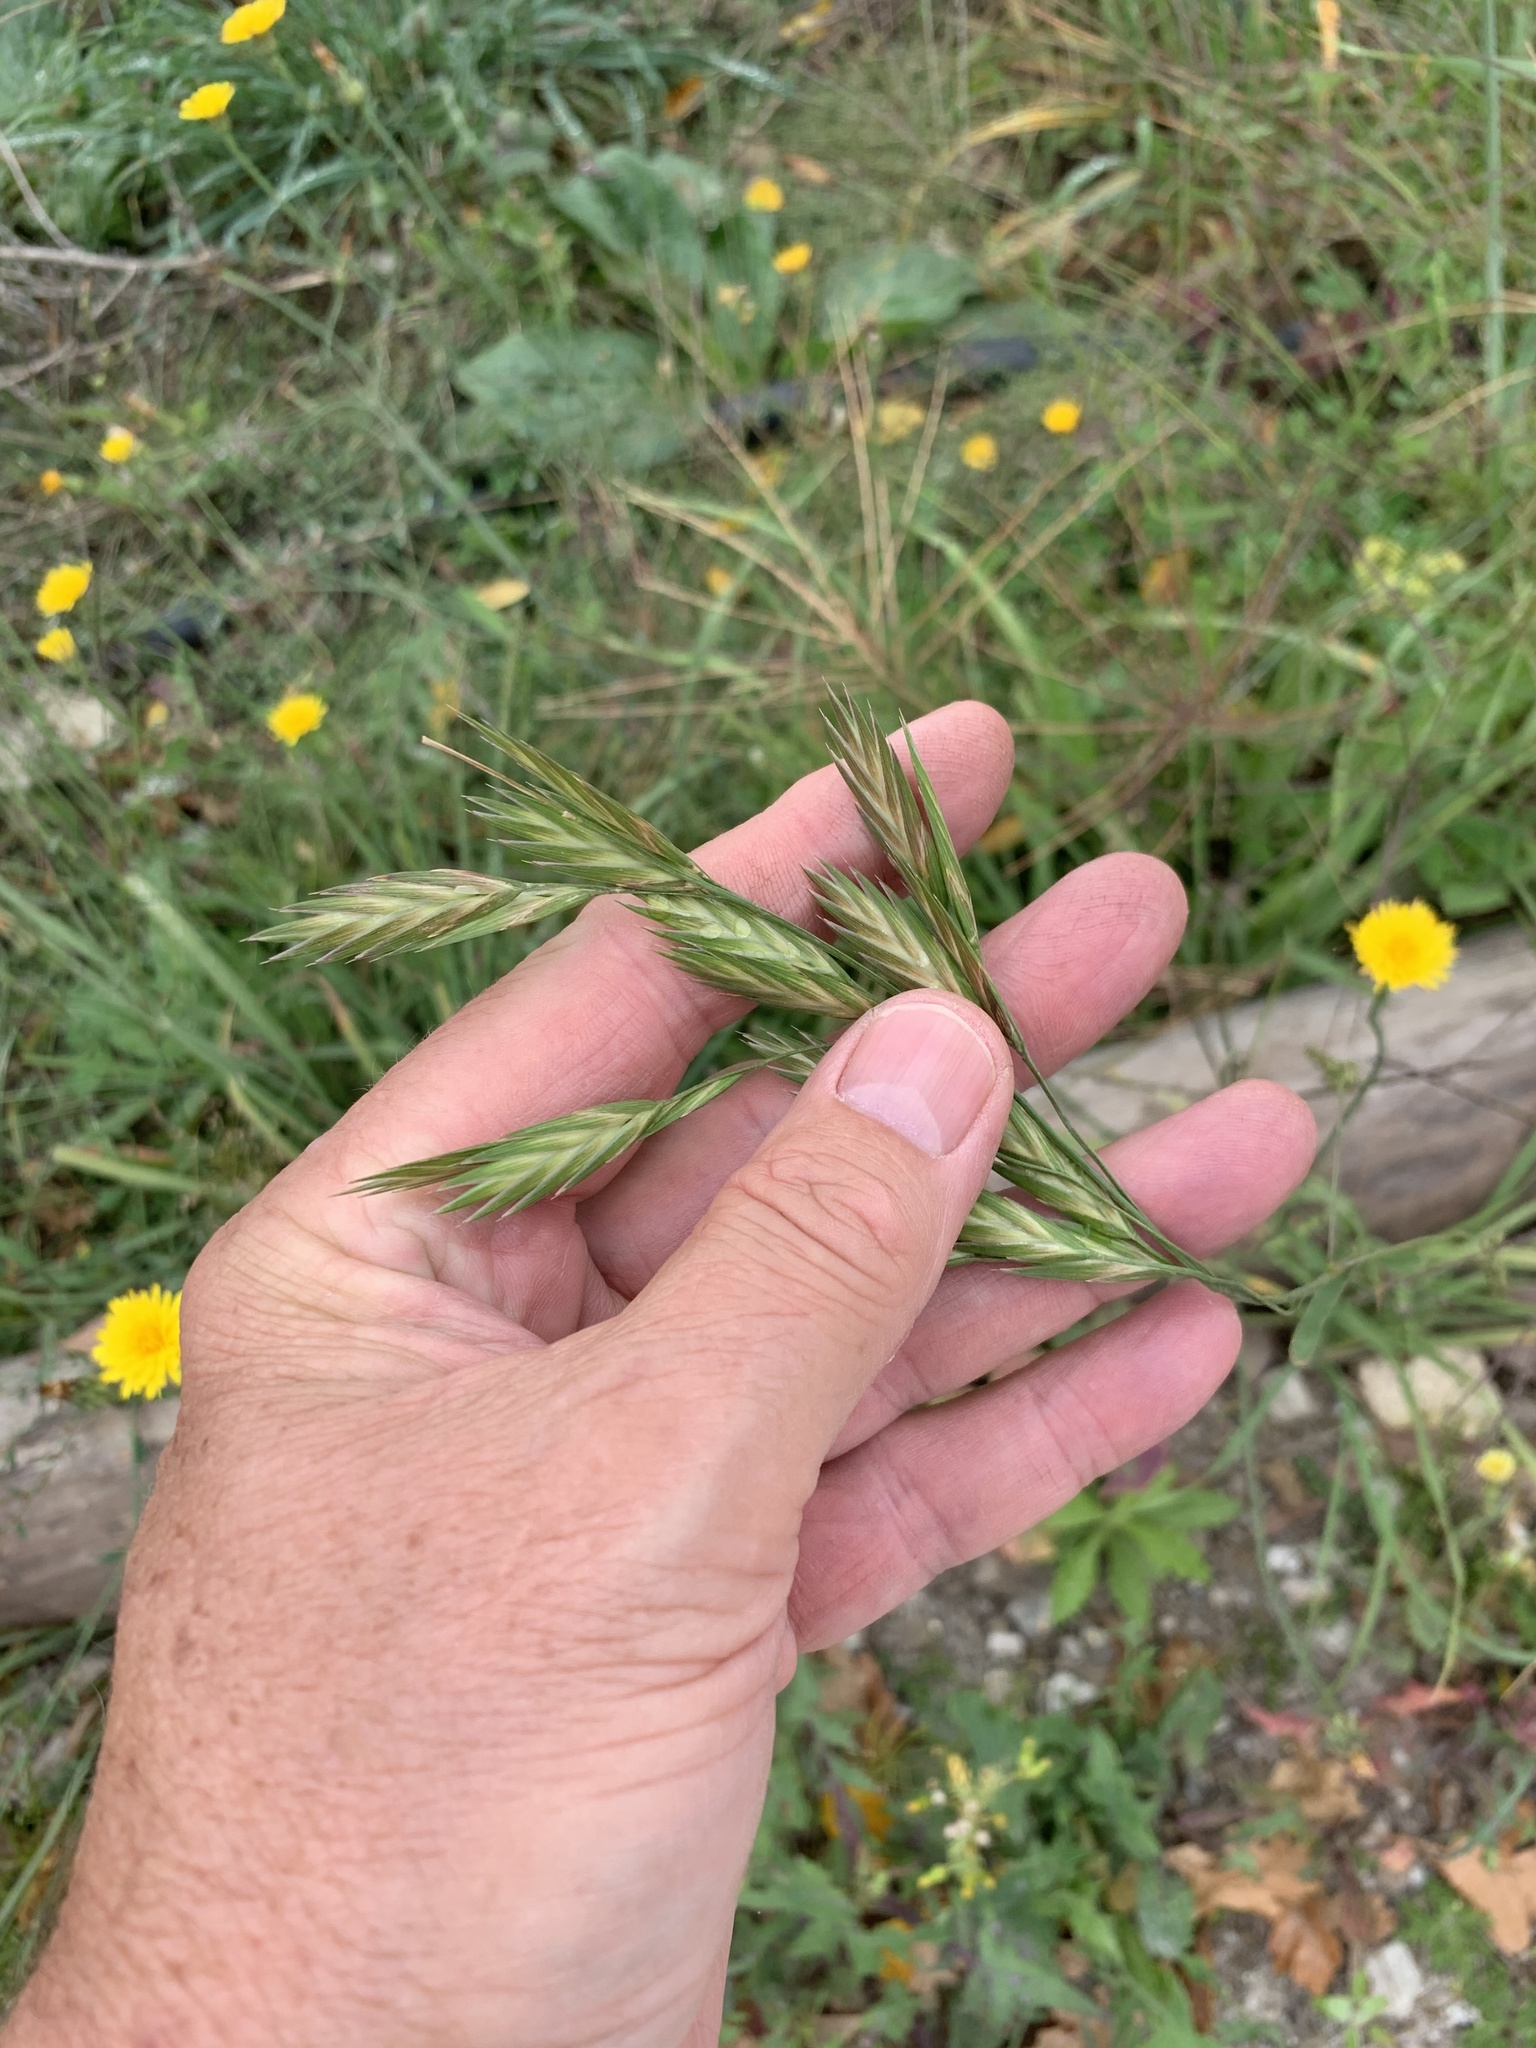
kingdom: Plantae
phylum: Tracheophyta
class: Liliopsida
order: Poales
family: Poaceae
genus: Bromus
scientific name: Bromus catharticus
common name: Rescuegrass
